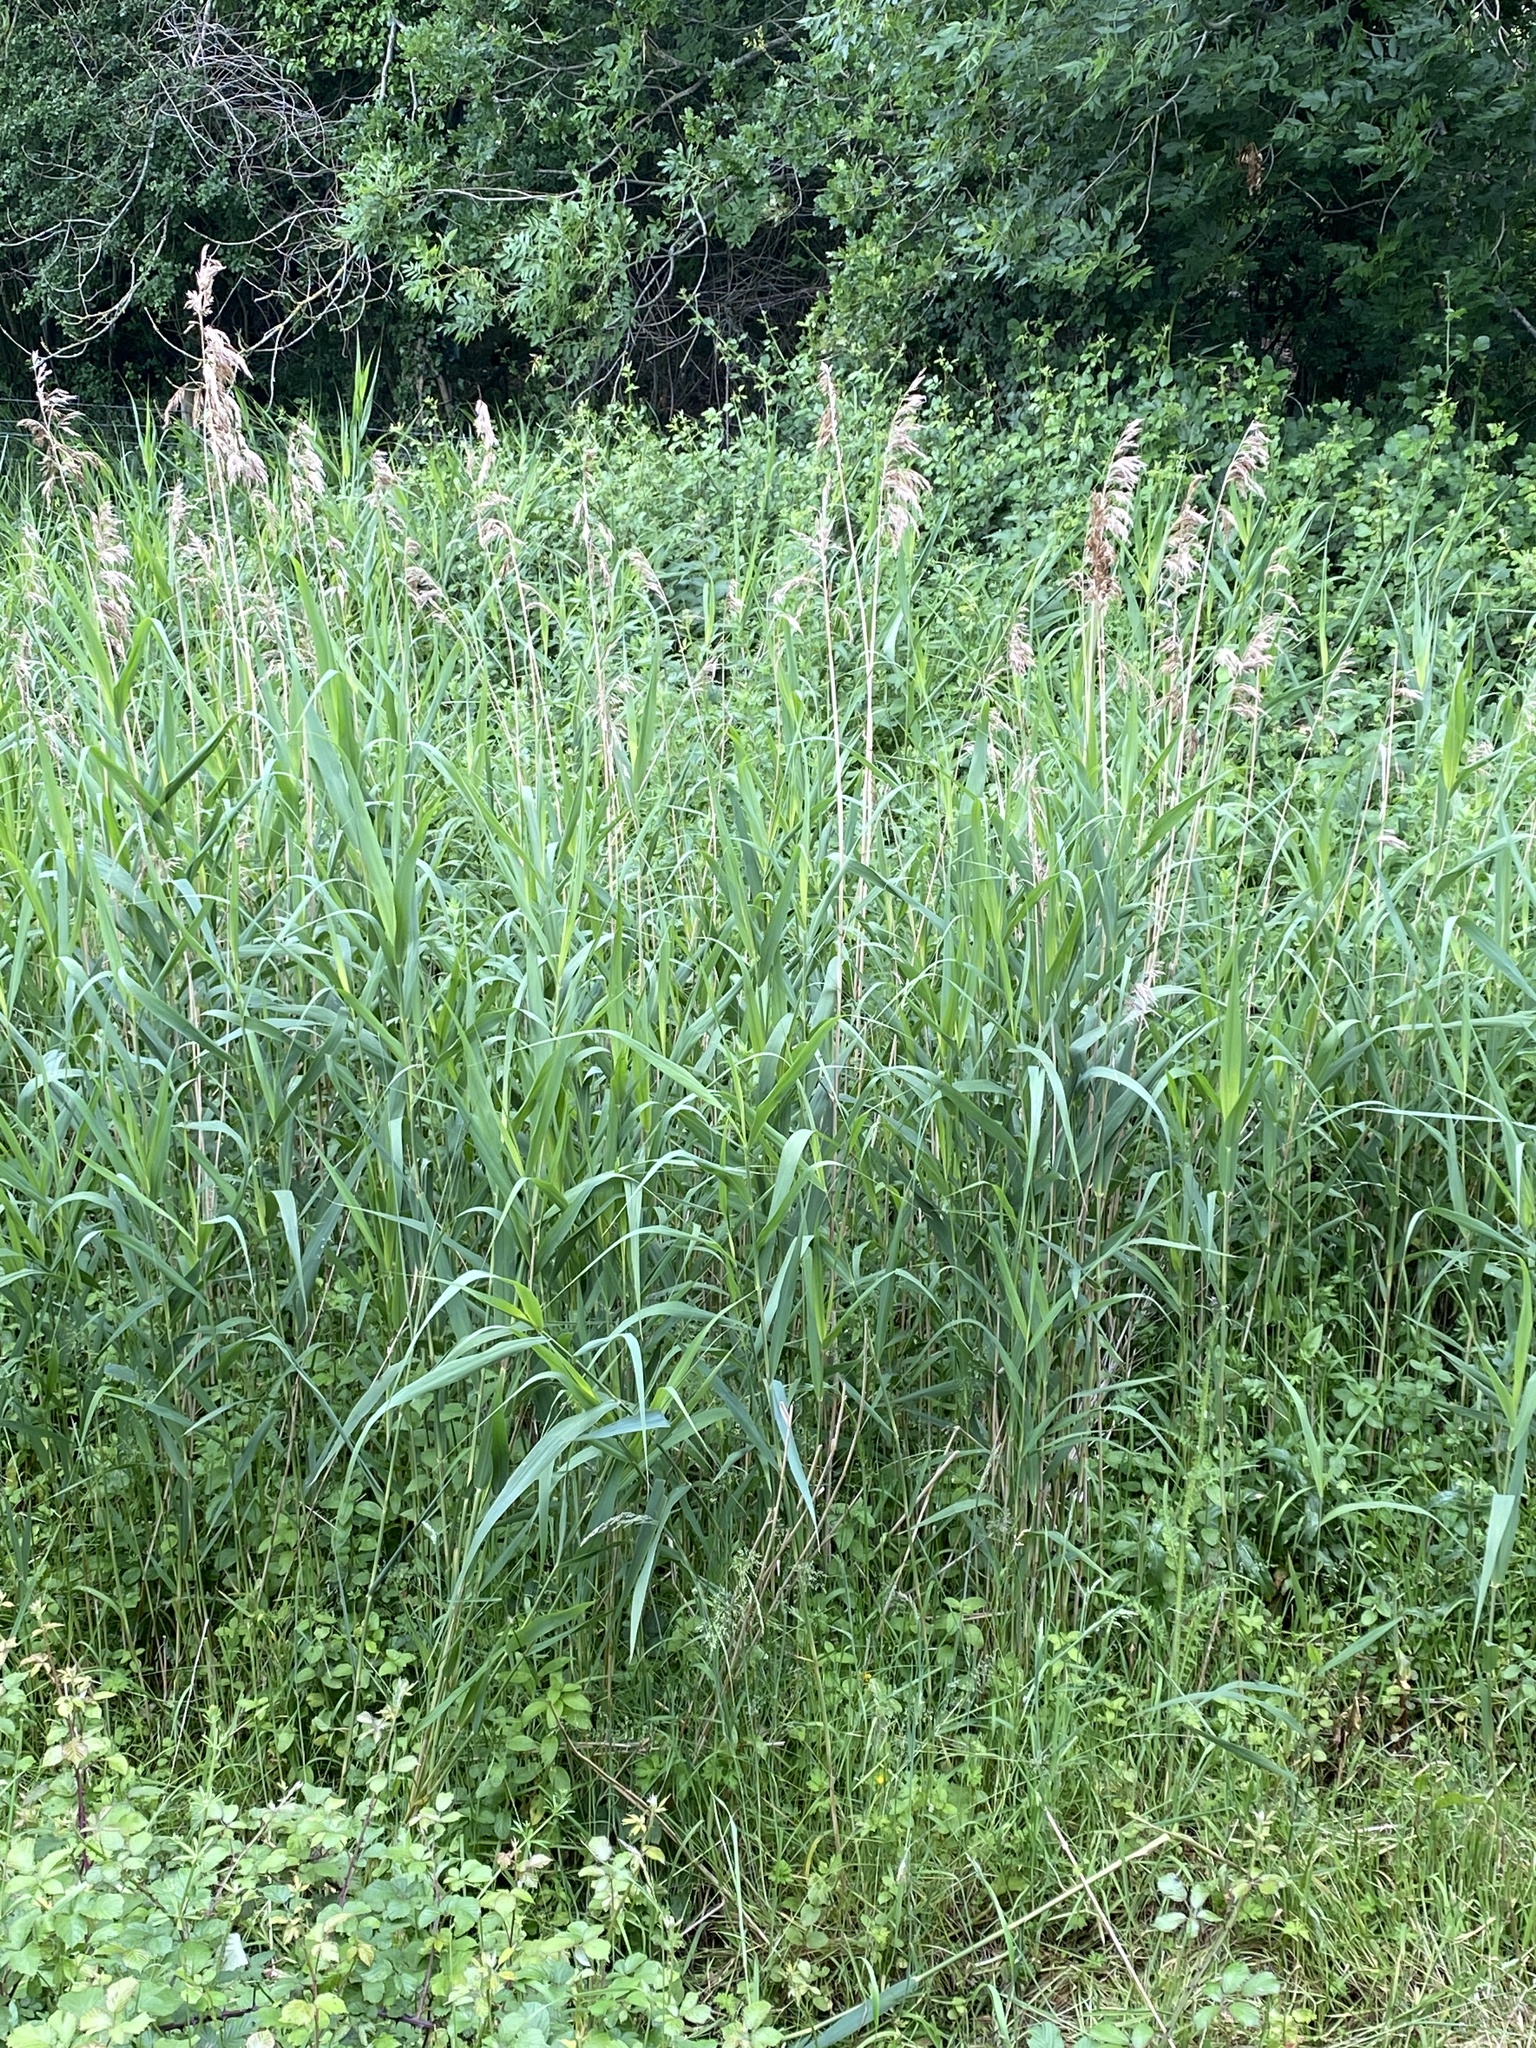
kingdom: Plantae
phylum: Tracheophyta
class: Liliopsida
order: Poales
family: Poaceae
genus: Phragmites
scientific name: Phragmites australis
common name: Common reed
